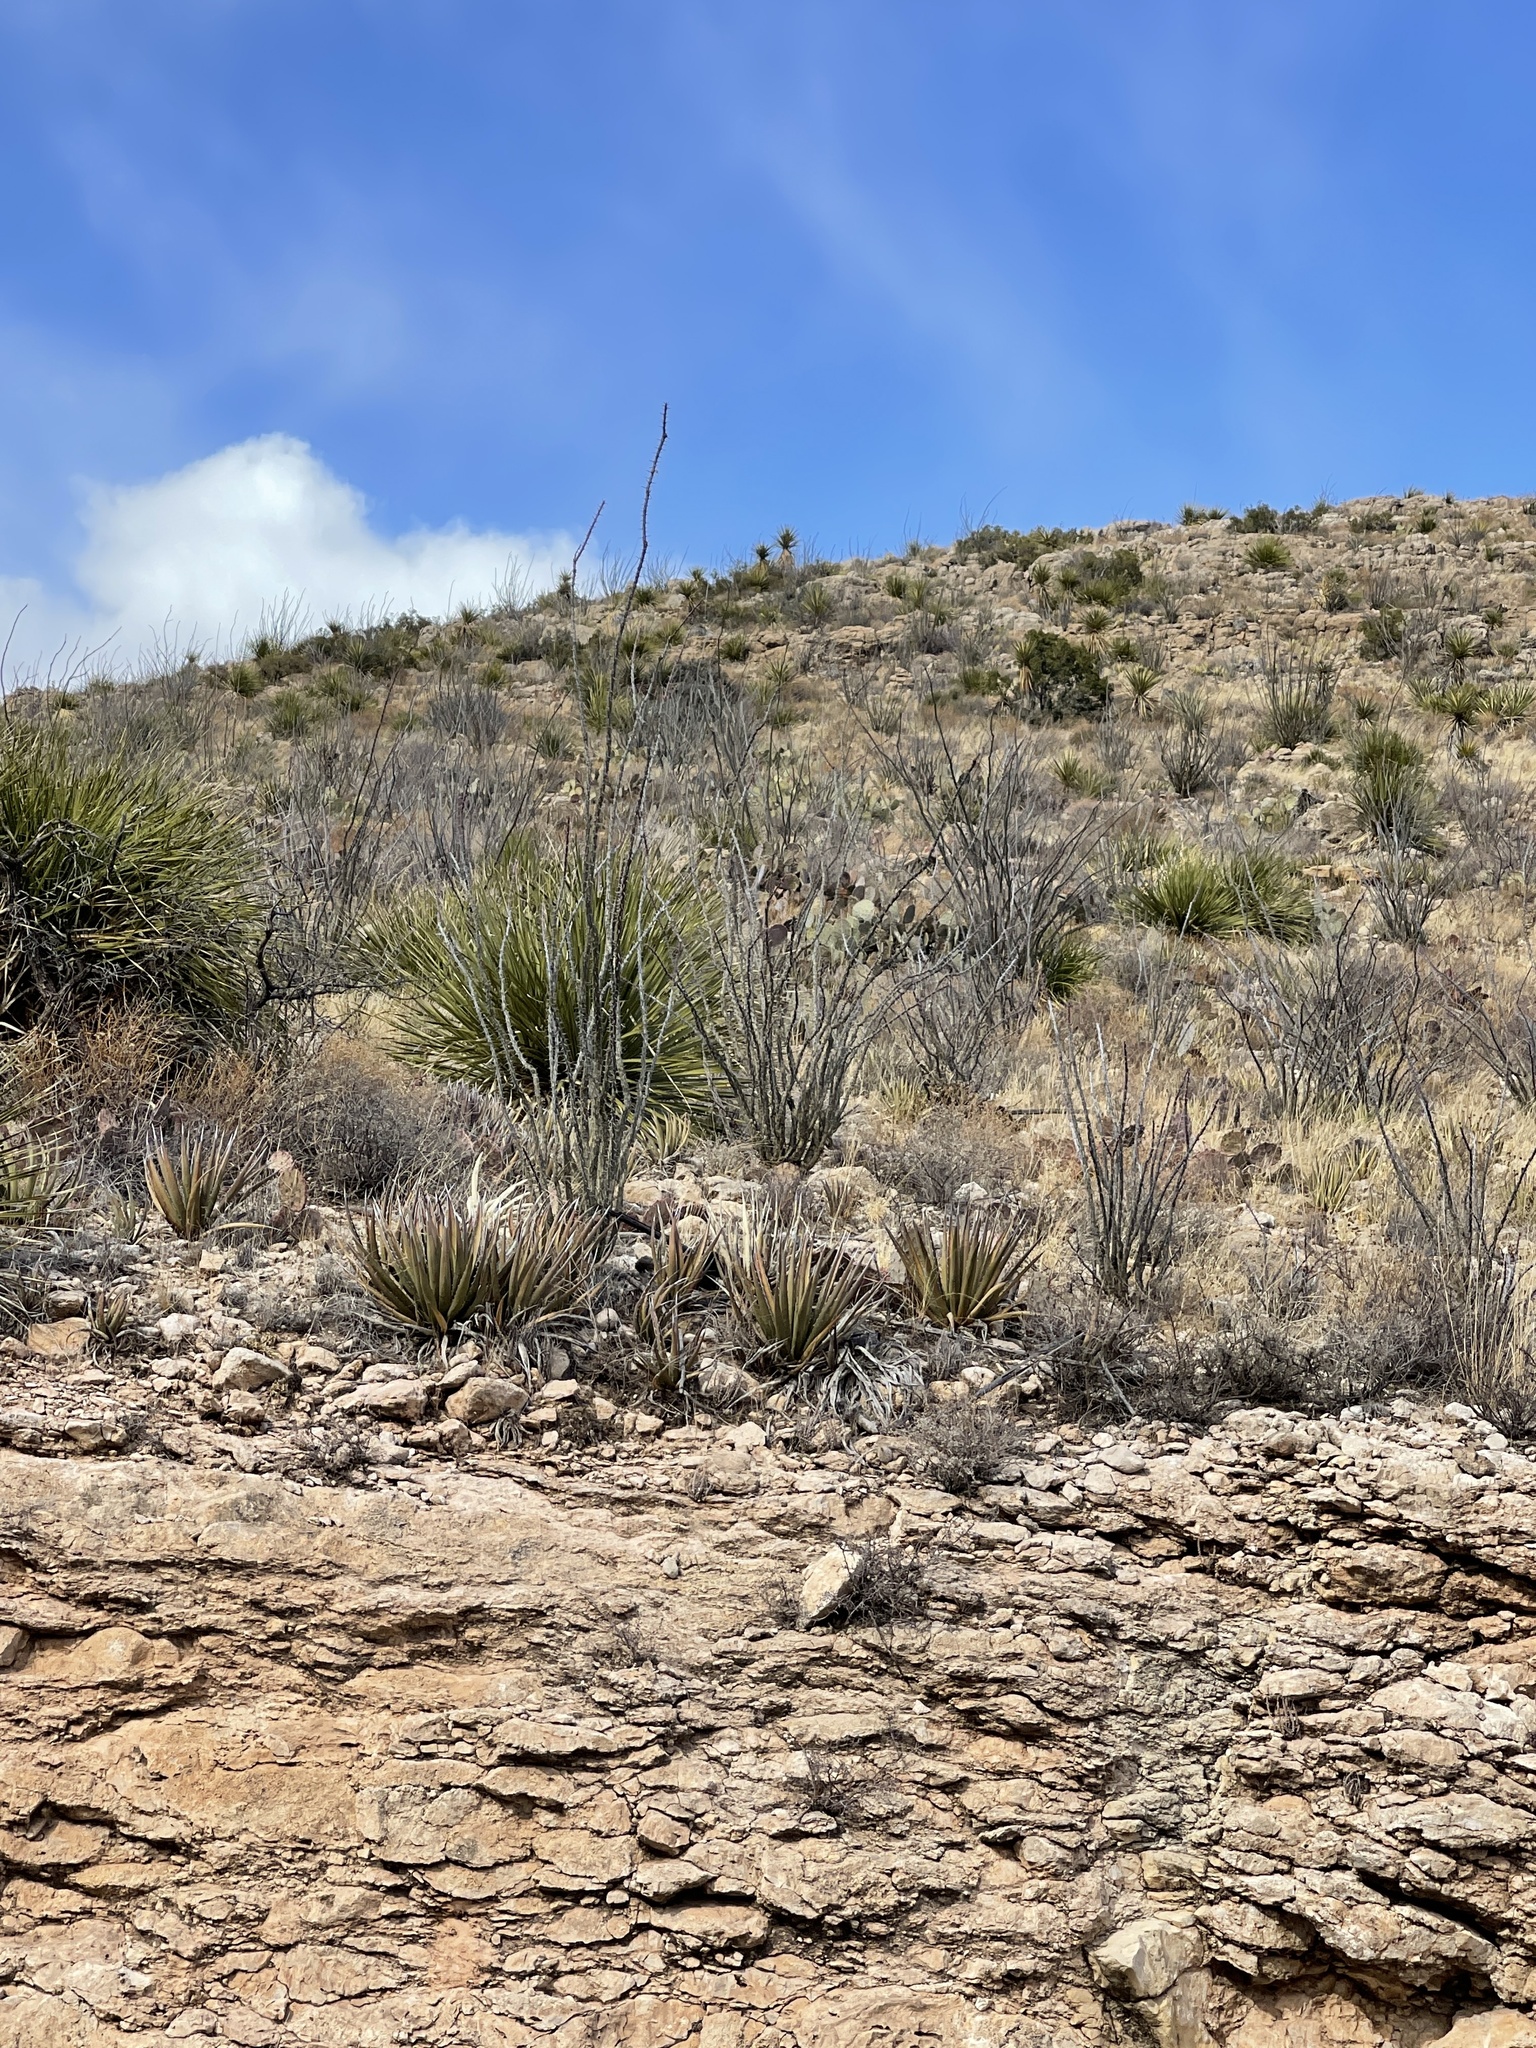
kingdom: Plantae
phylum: Tracheophyta
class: Magnoliopsida
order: Ericales
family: Fouquieriaceae
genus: Fouquieria
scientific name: Fouquieria splendens
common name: Vine-cactus
